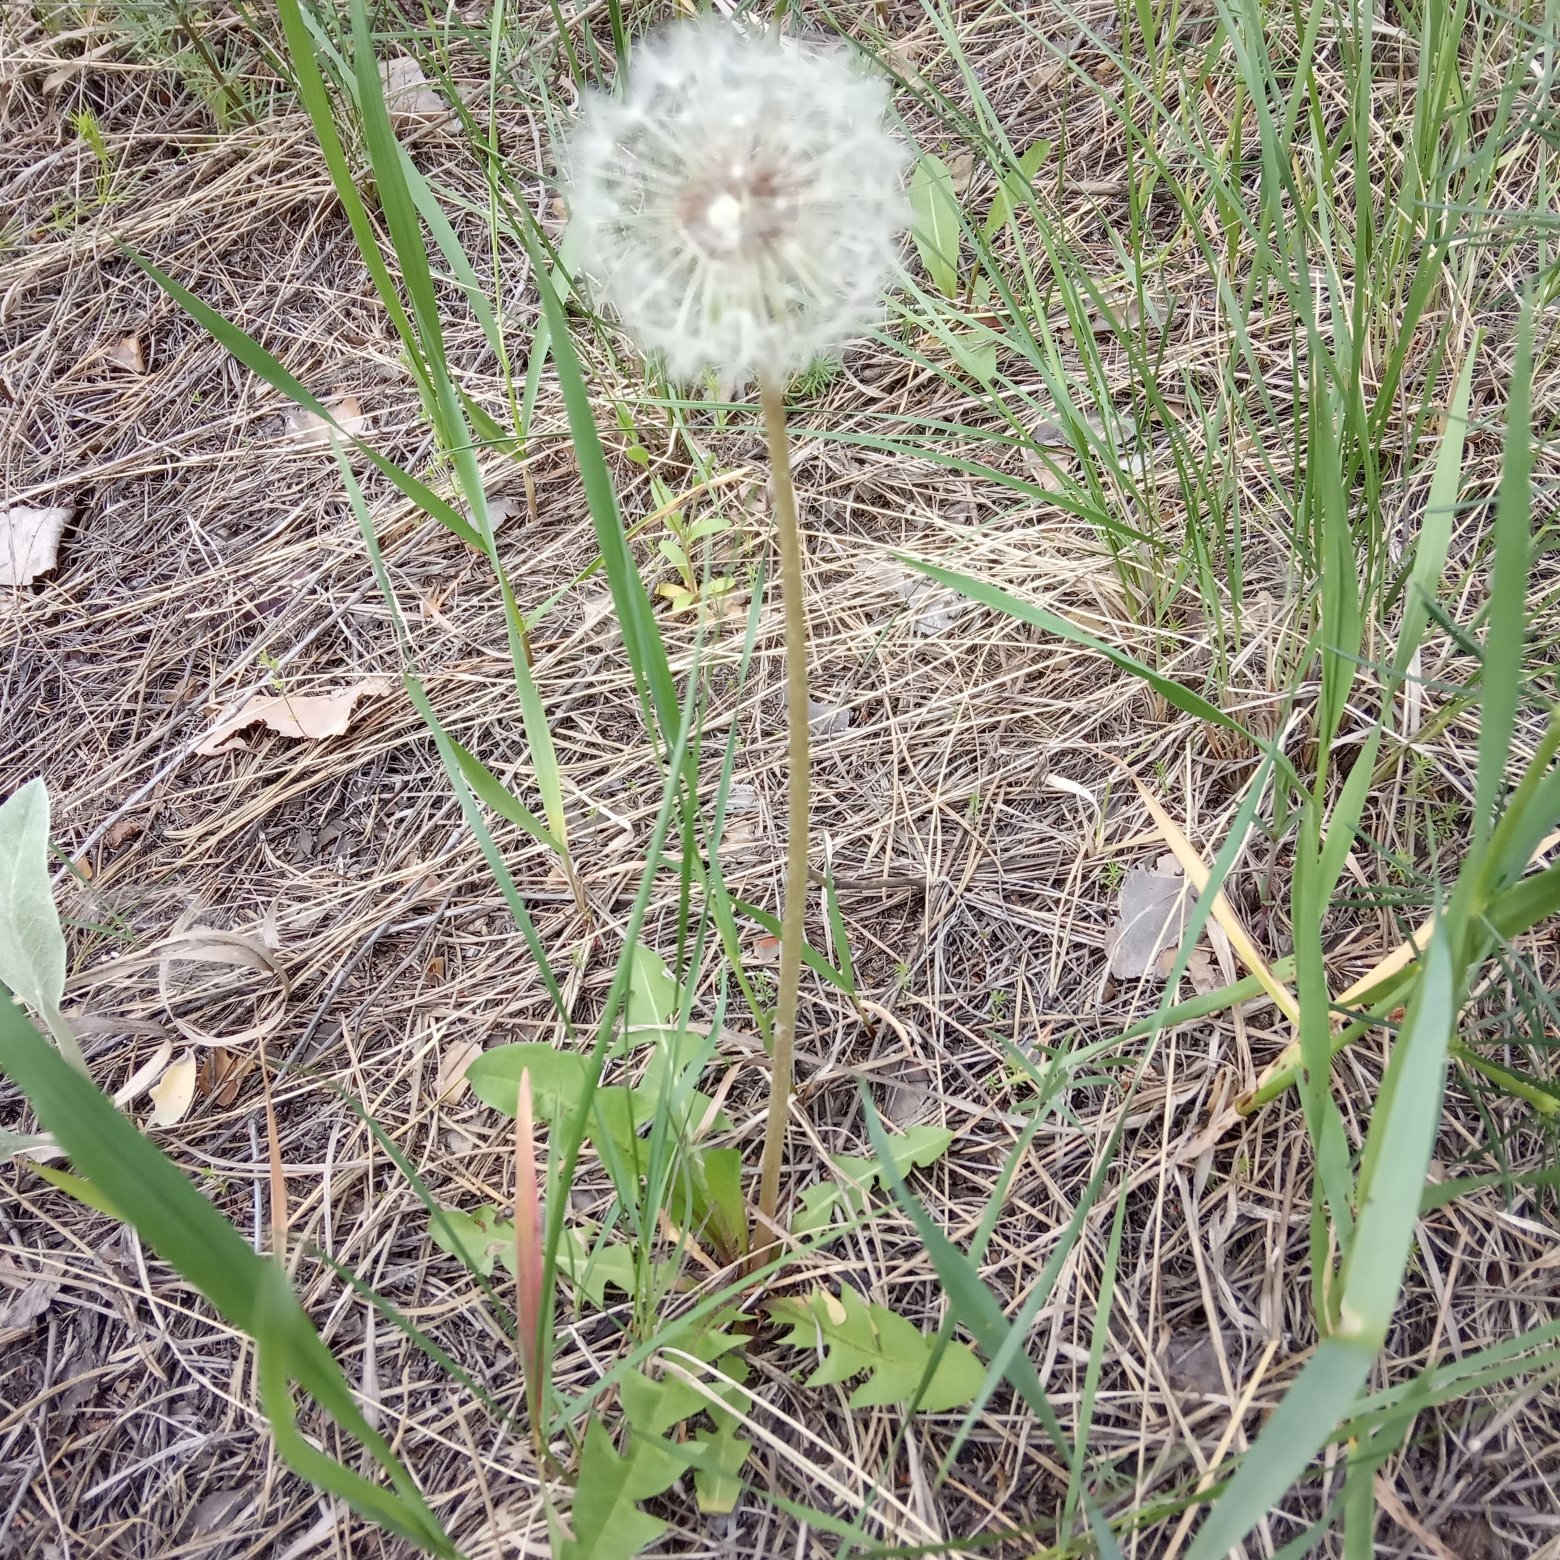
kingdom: Plantae
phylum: Tracheophyta
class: Magnoliopsida
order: Asterales
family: Asteraceae
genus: Taraxacum
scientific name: Taraxacum officinale
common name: Common dandelion
